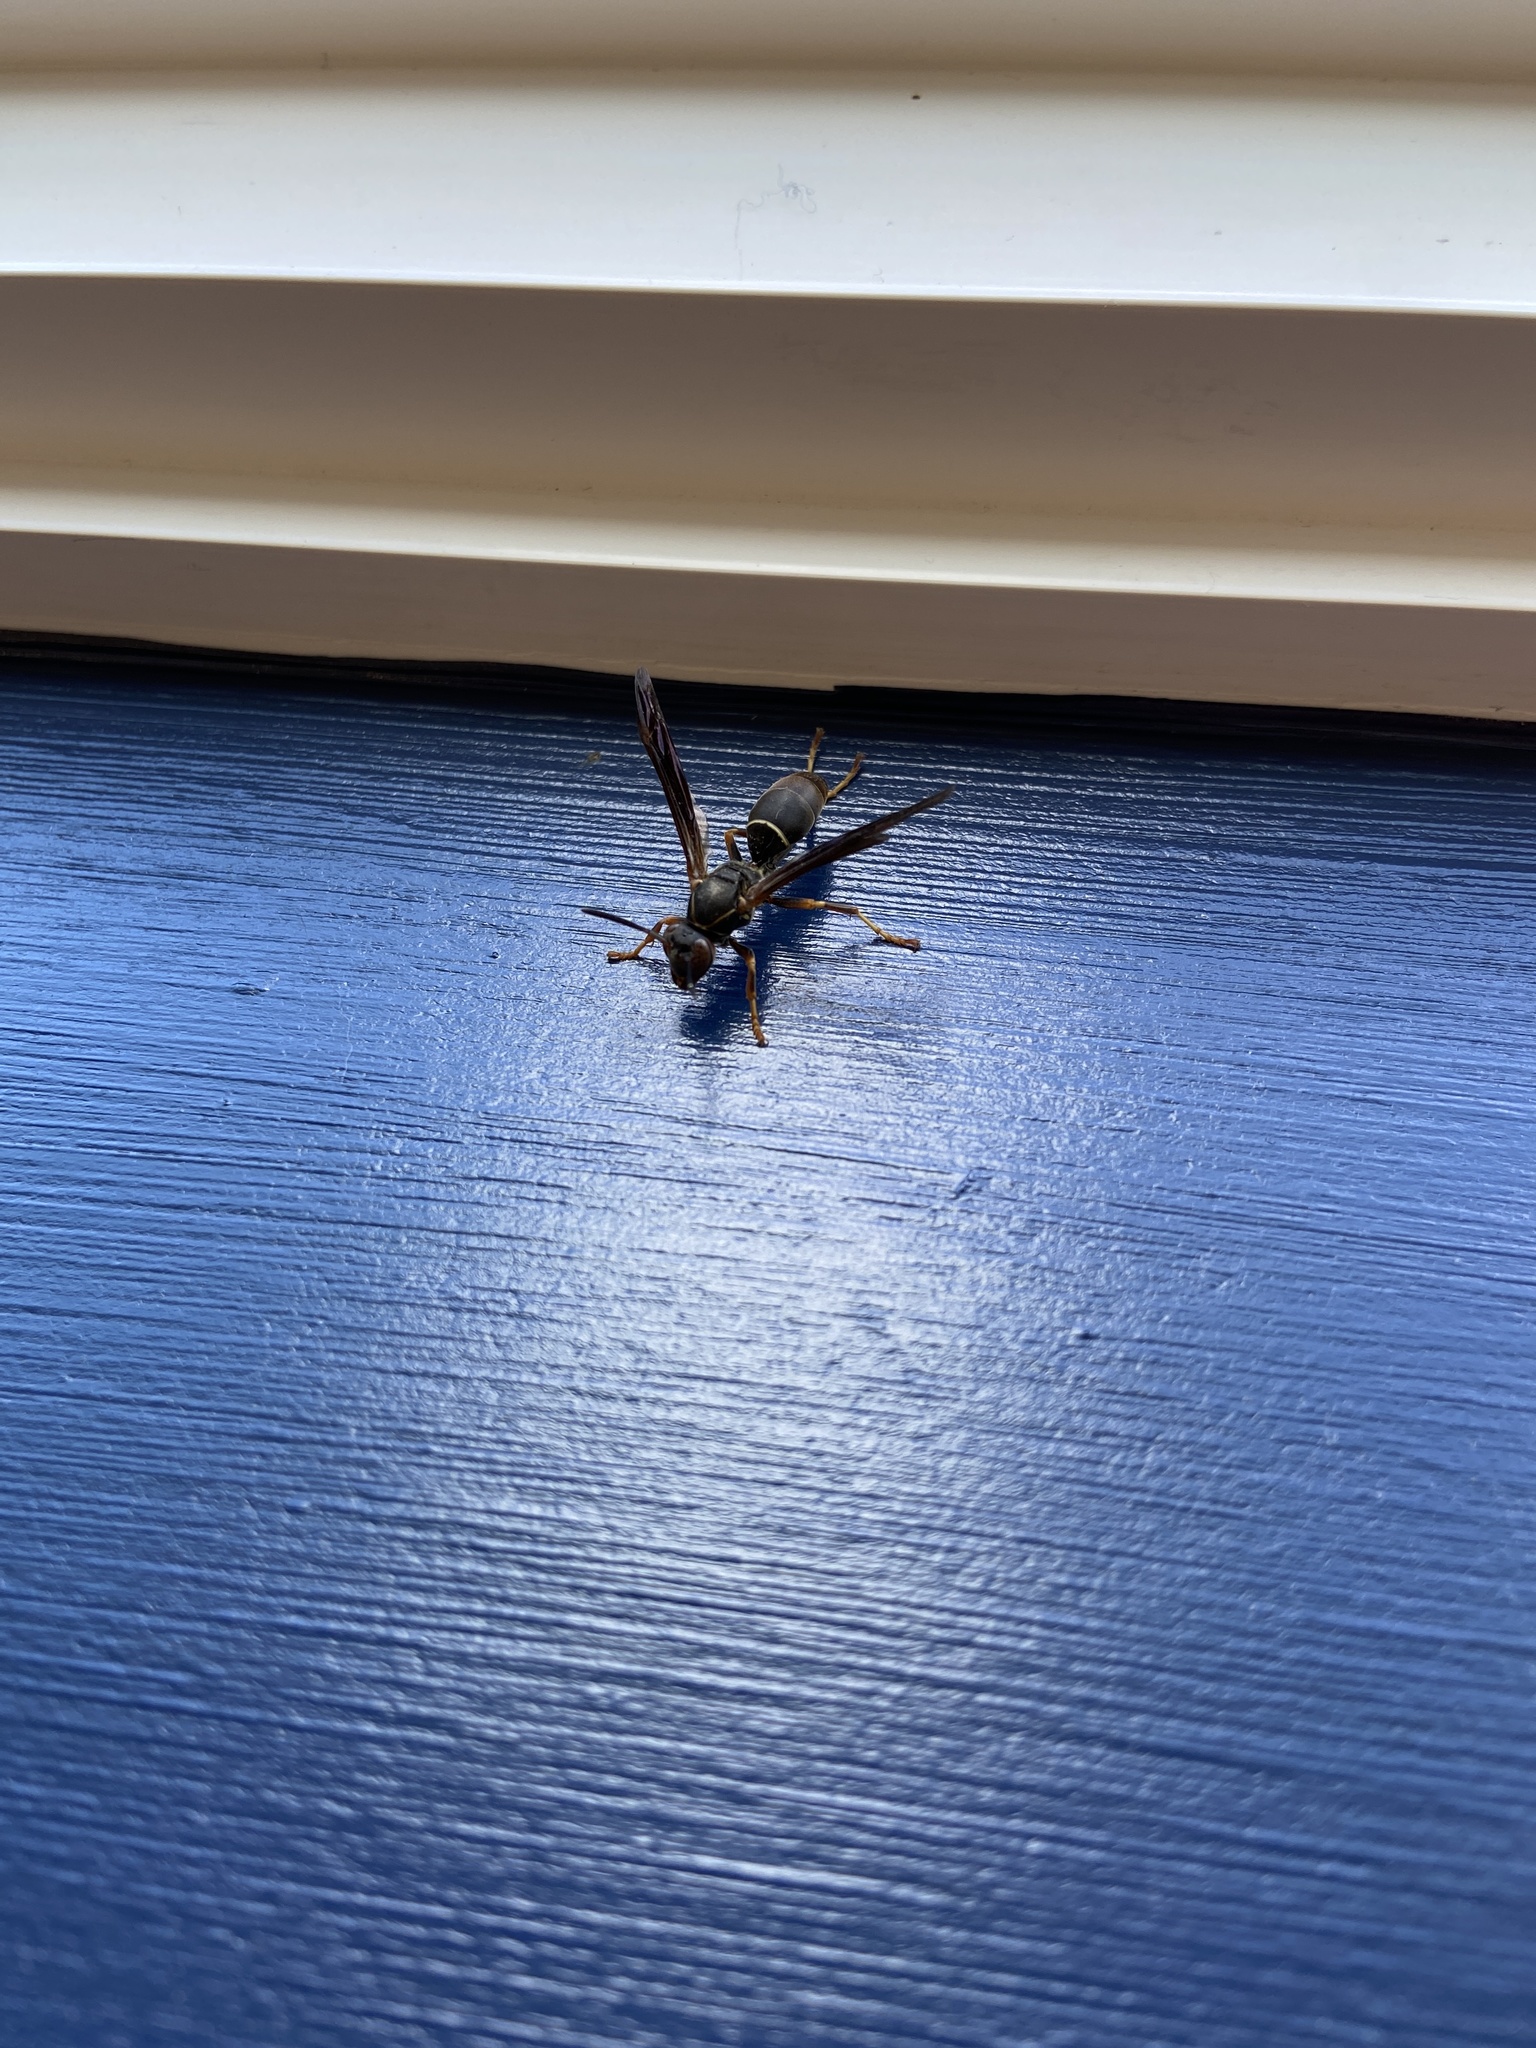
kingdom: Animalia
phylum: Arthropoda
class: Insecta
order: Hymenoptera
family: Eumenidae
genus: Polistes
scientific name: Polistes fuscatus
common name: Dark paper wasp
